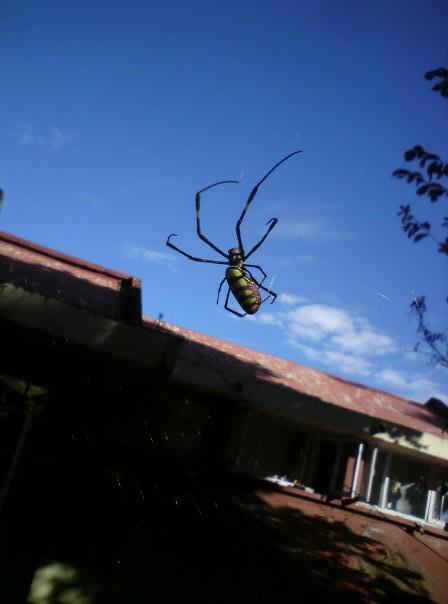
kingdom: Animalia
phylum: Arthropoda
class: Arachnida
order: Araneae
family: Araneidae
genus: Trichonephila
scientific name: Trichonephila clavata
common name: Jorō spider
